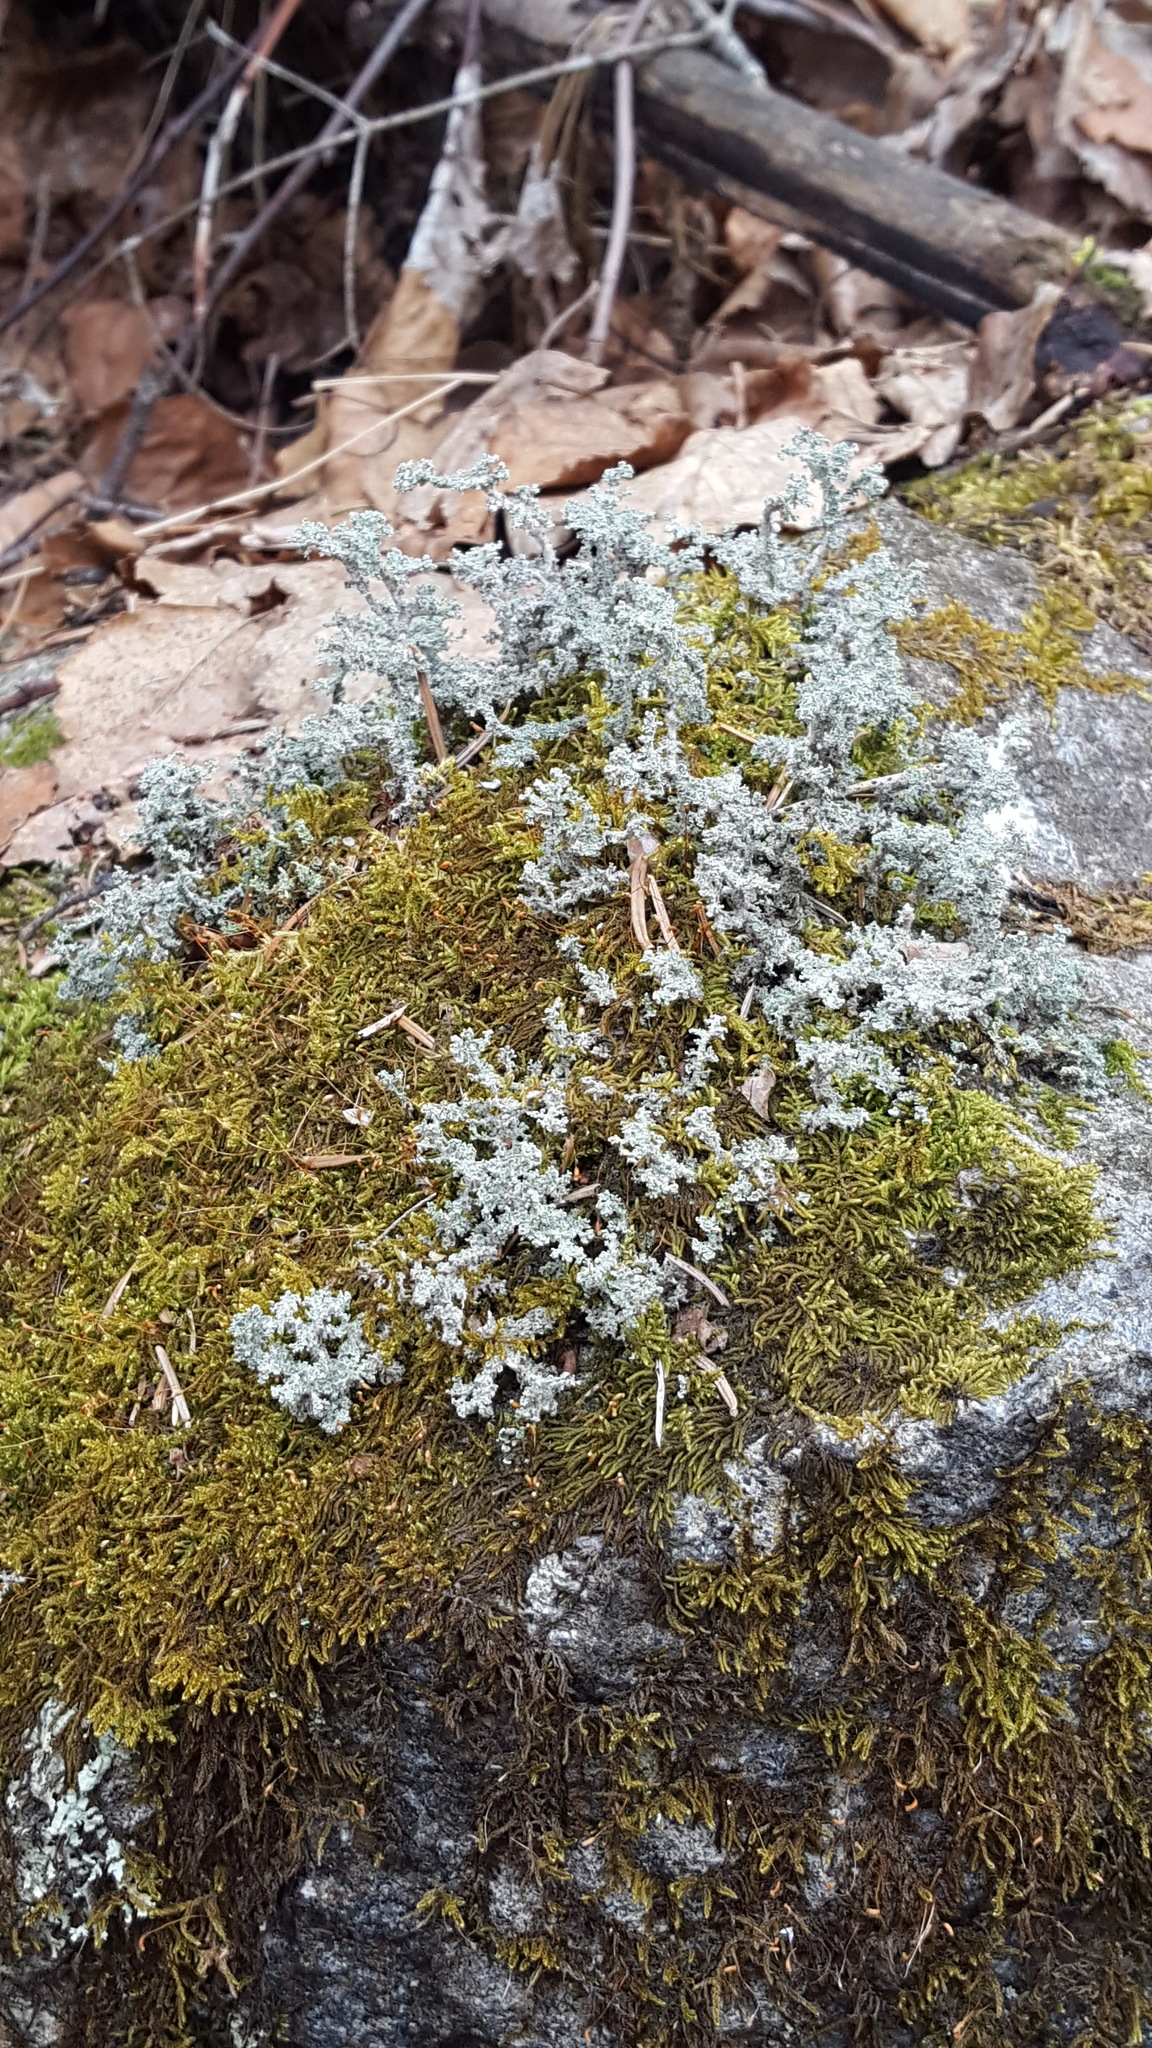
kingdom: Fungi
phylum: Ascomycota
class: Lecanoromycetes
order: Lecanorales
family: Stereocaulaceae
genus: Stereocaulon
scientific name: Stereocaulon saxatile
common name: Rock foam
